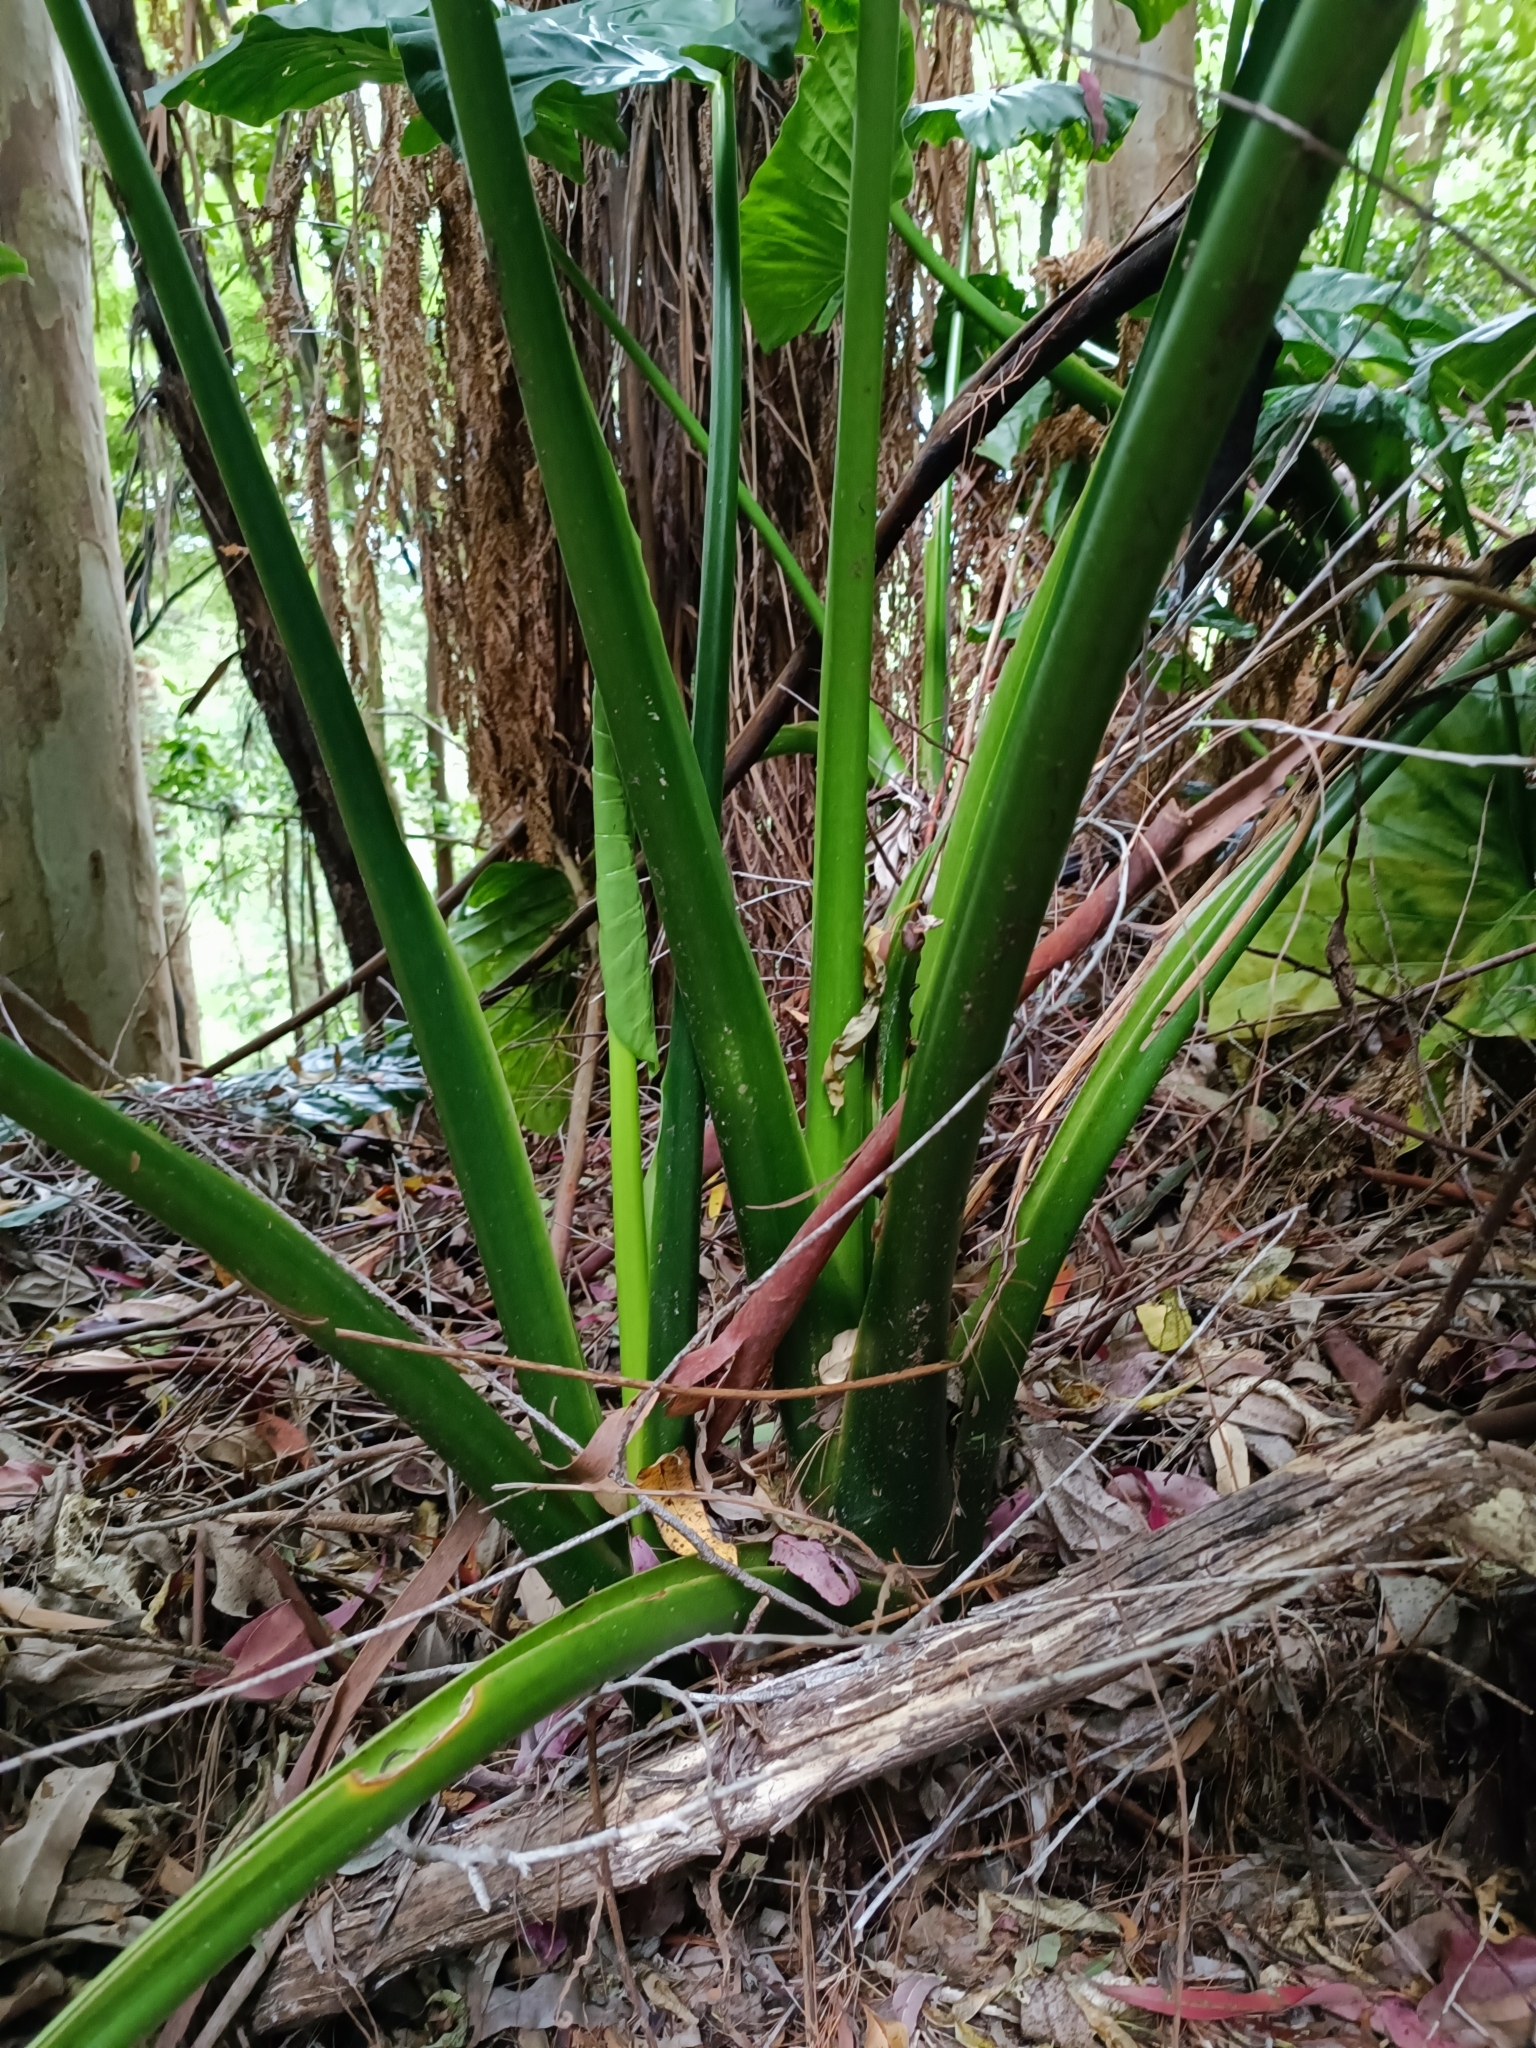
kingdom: Plantae
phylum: Tracheophyta
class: Liliopsida
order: Alismatales
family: Araceae
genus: Alocasia
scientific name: Alocasia brisbanensis
